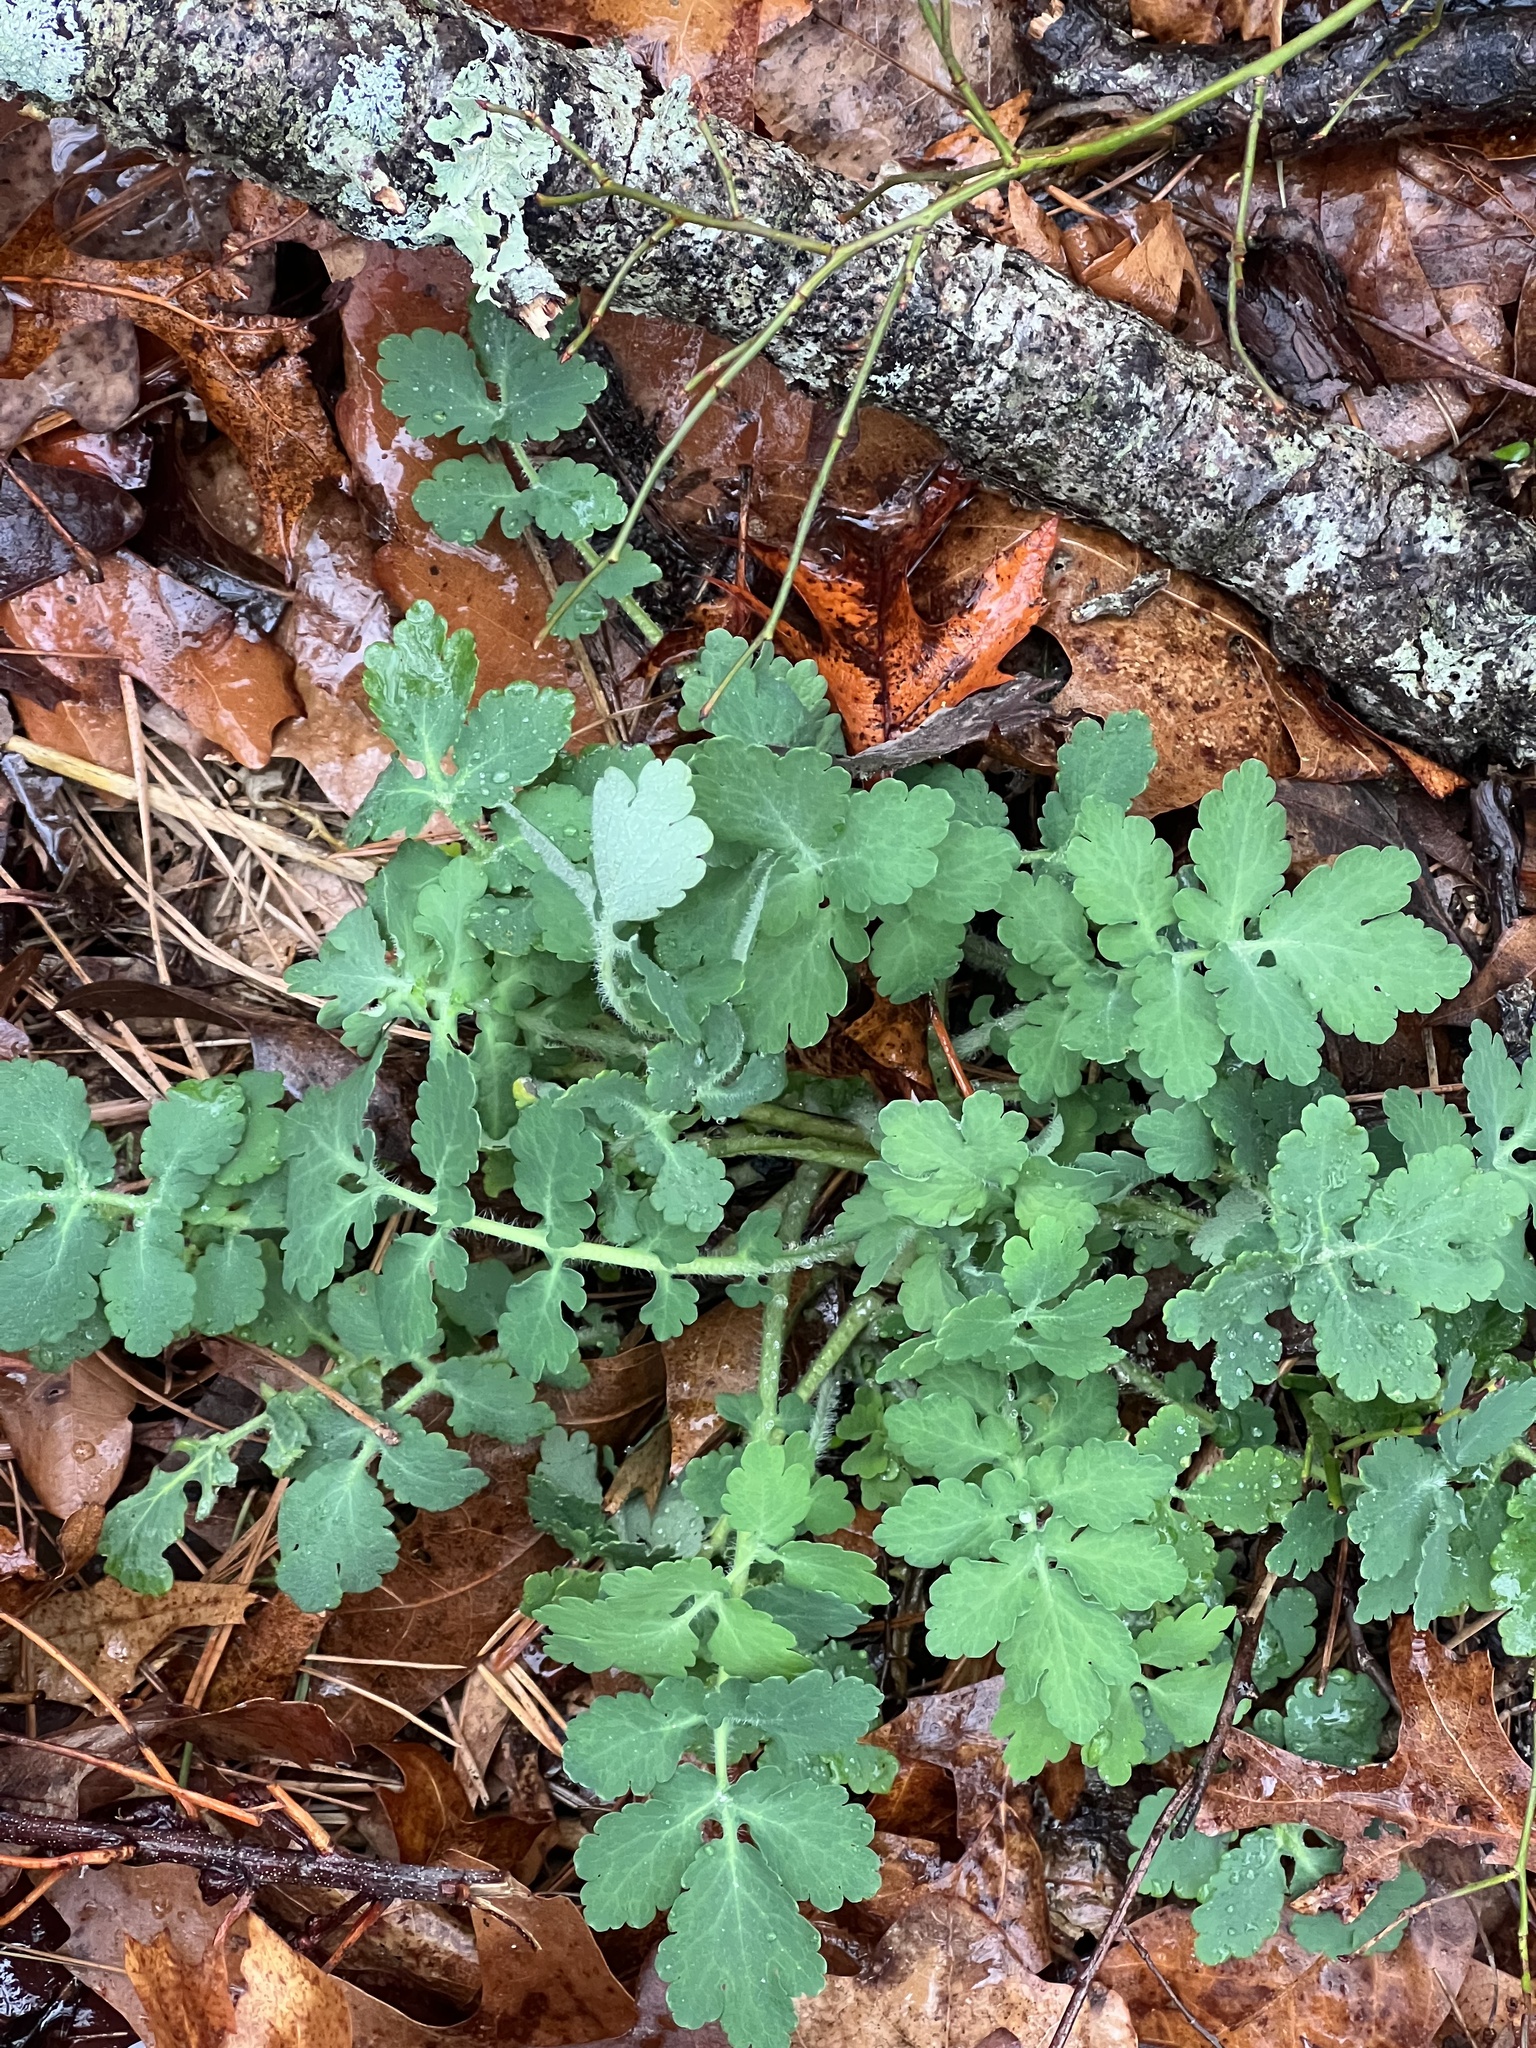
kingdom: Plantae
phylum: Tracheophyta
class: Magnoliopsida
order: Ranunculales
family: Papaveraceae
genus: Chelidonium
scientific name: Chelidonium majus
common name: Greater celandine
